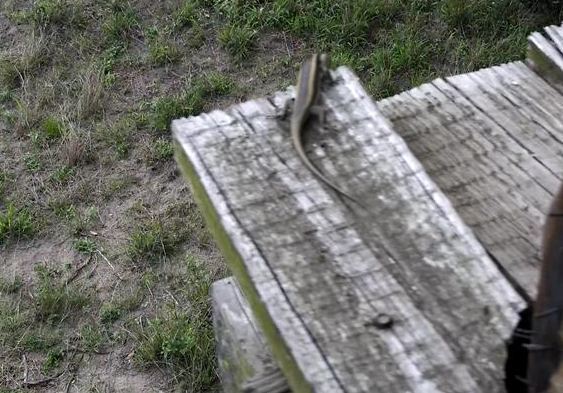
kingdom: Animalia
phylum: Chordata
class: Squamata
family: Scincidae
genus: Trachylepis
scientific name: Trachylepis striata
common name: African striped mabuya
